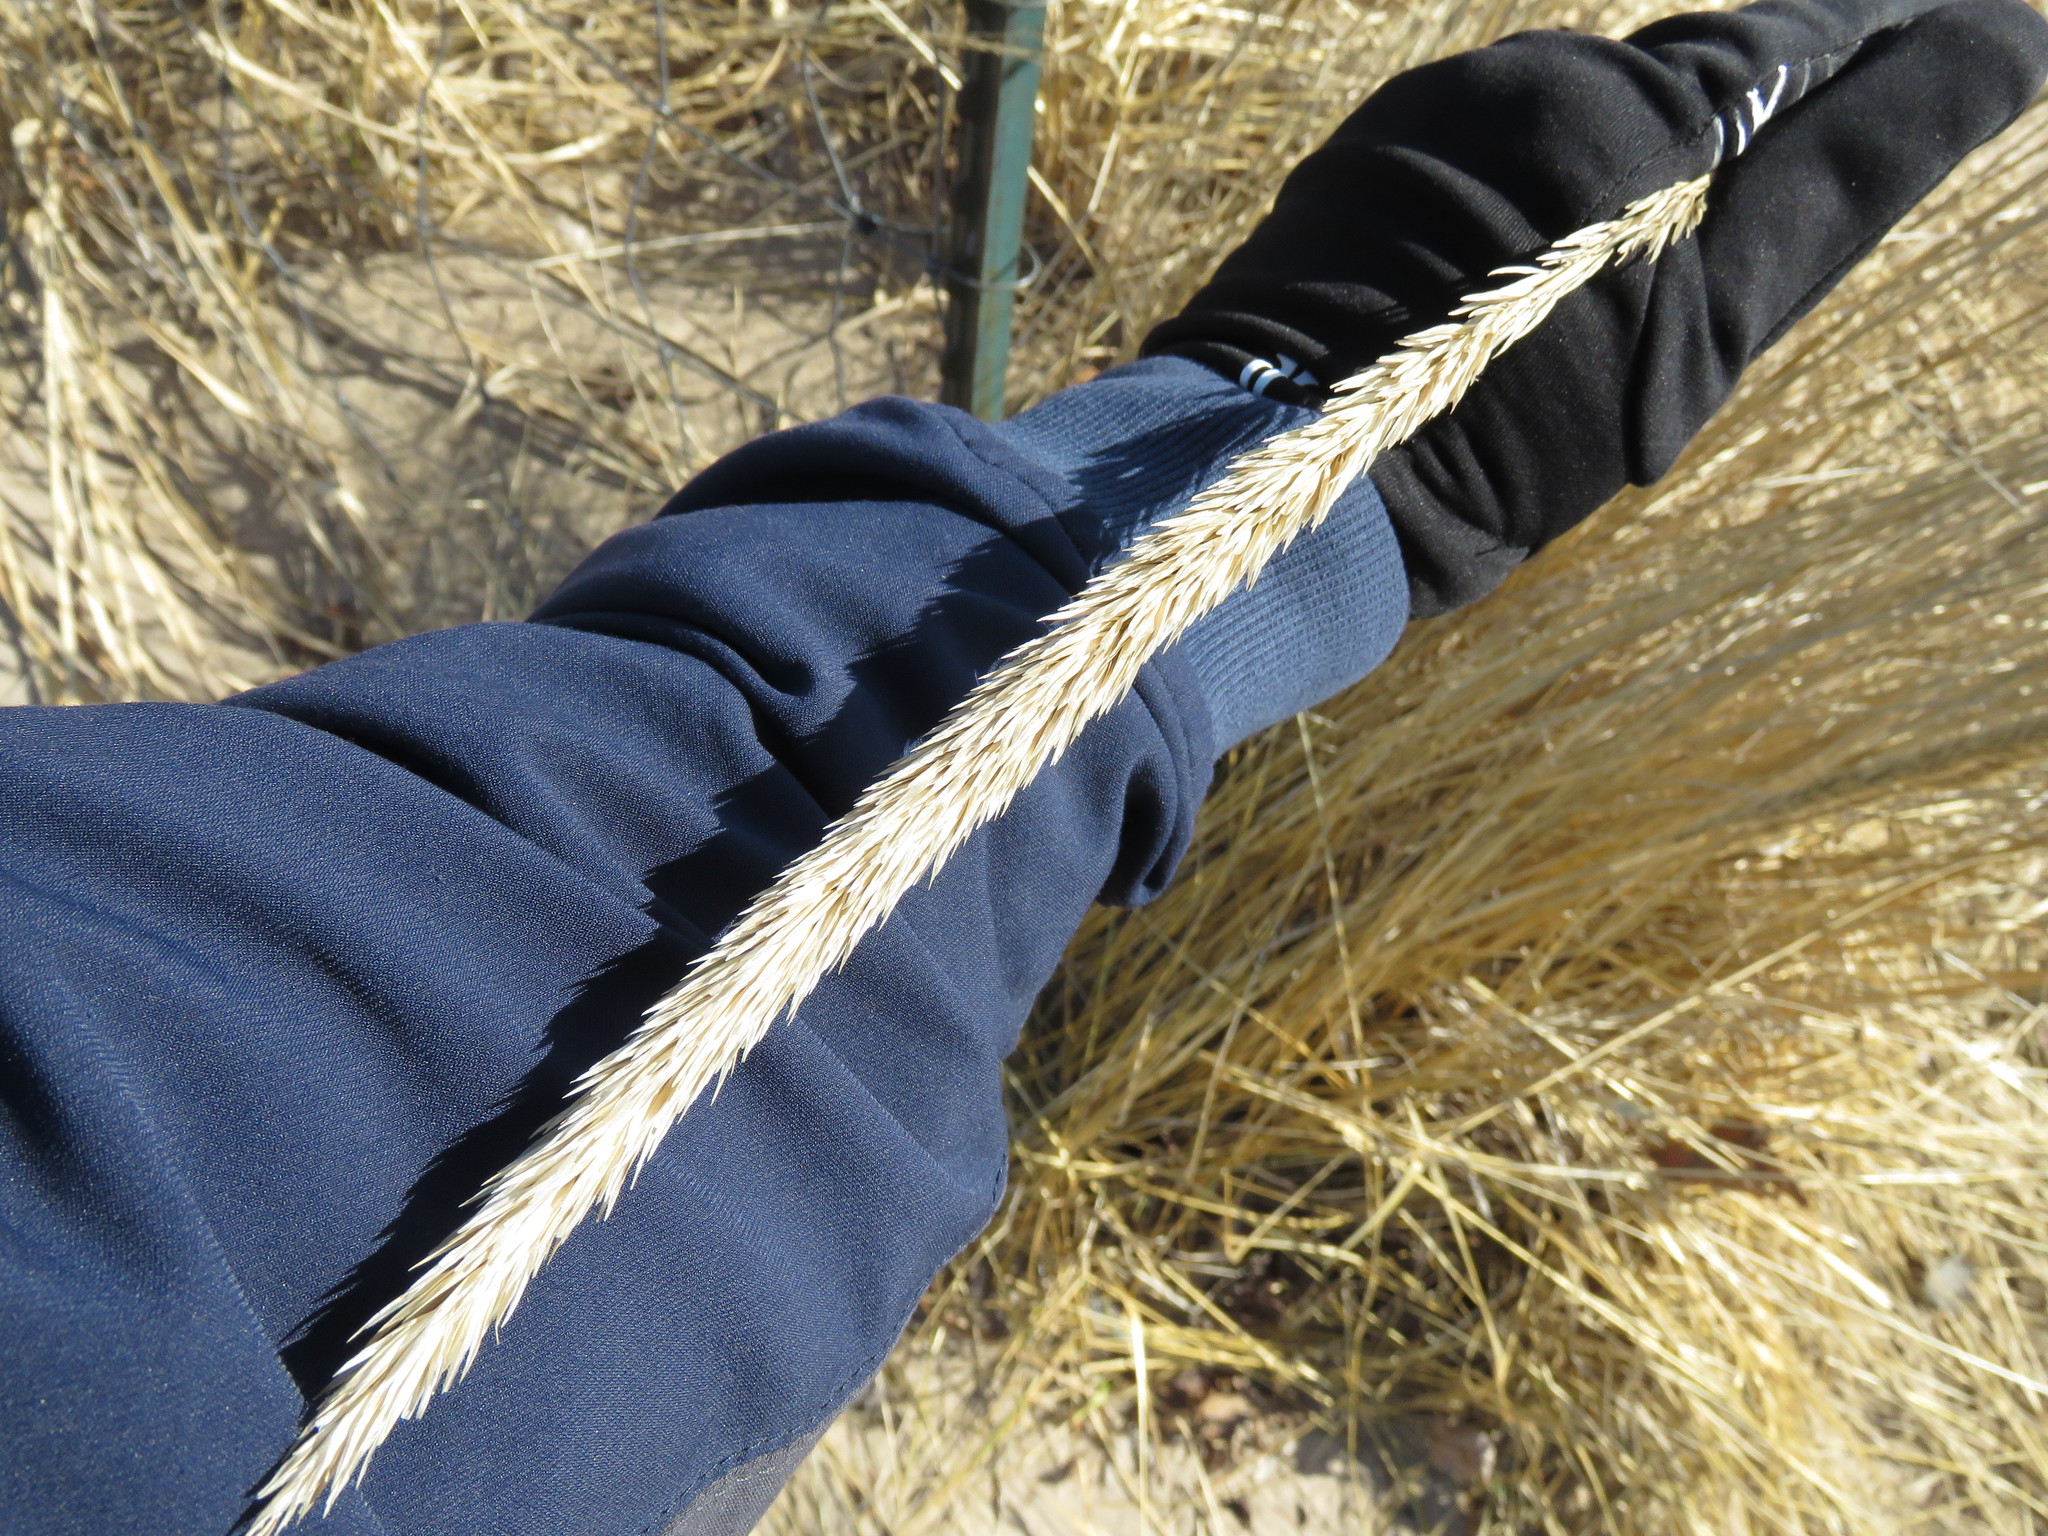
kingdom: Plantae
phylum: Tracheophyta
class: Liliopsida
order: Poales
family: Poaceae
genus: Calamagrostis
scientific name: Calamagrostis breviligulata
